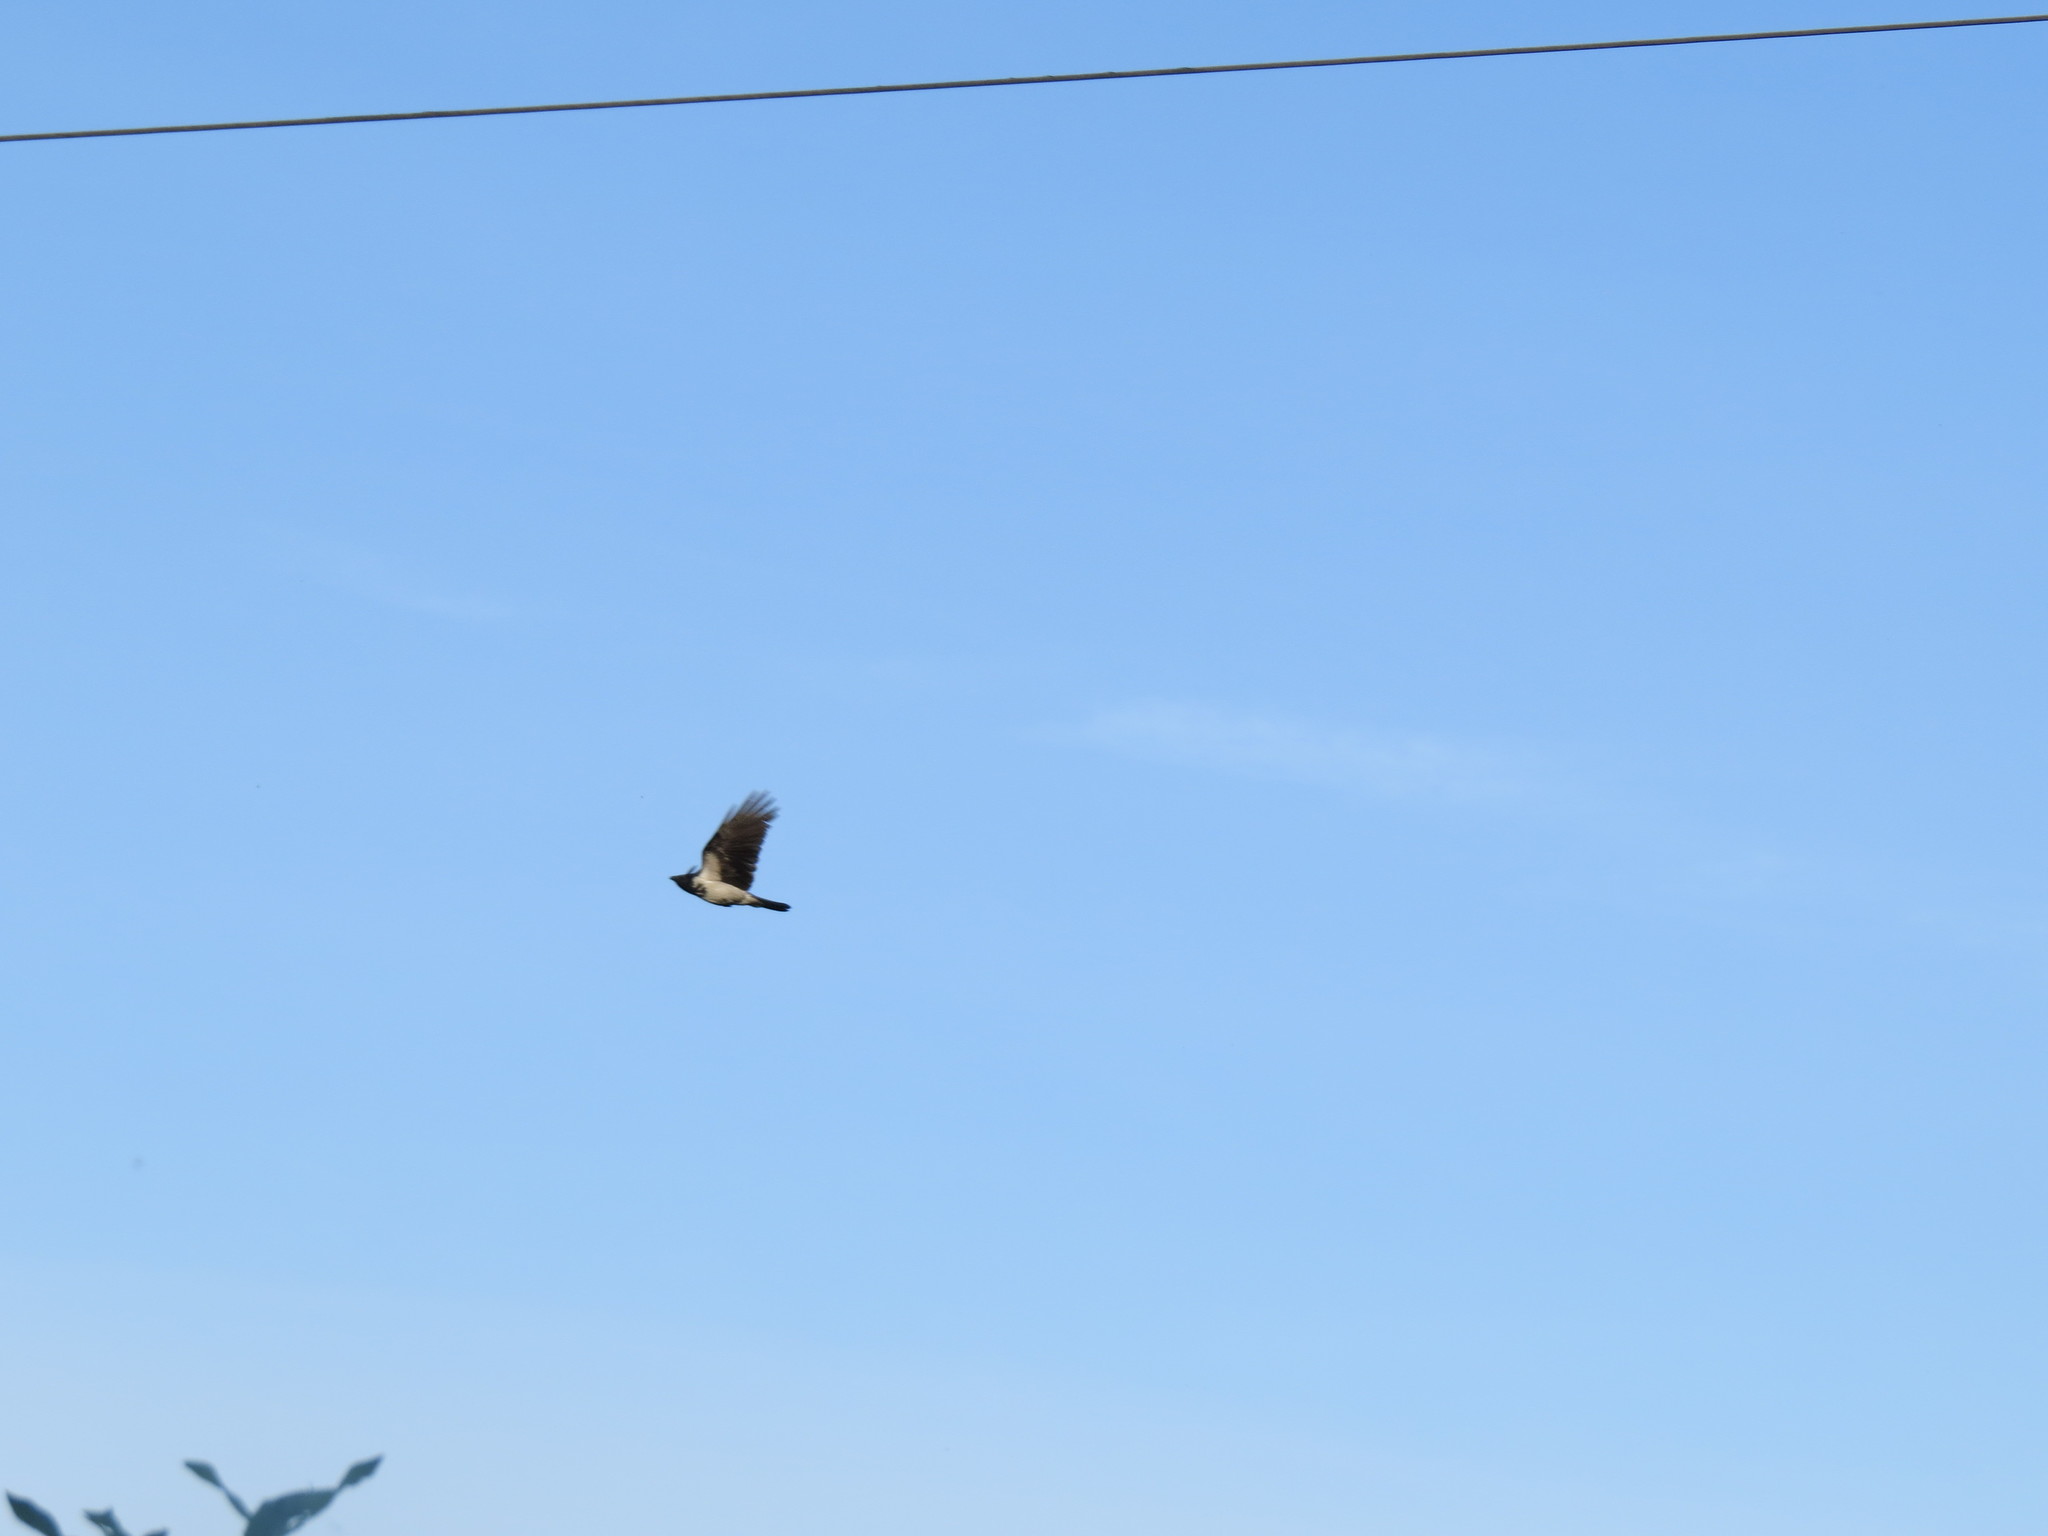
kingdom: Animalia
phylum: Chordata
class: Aves
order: Passeriformes
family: Corvidae
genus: Corvus
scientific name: Corvus cornix
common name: Hooded crow
